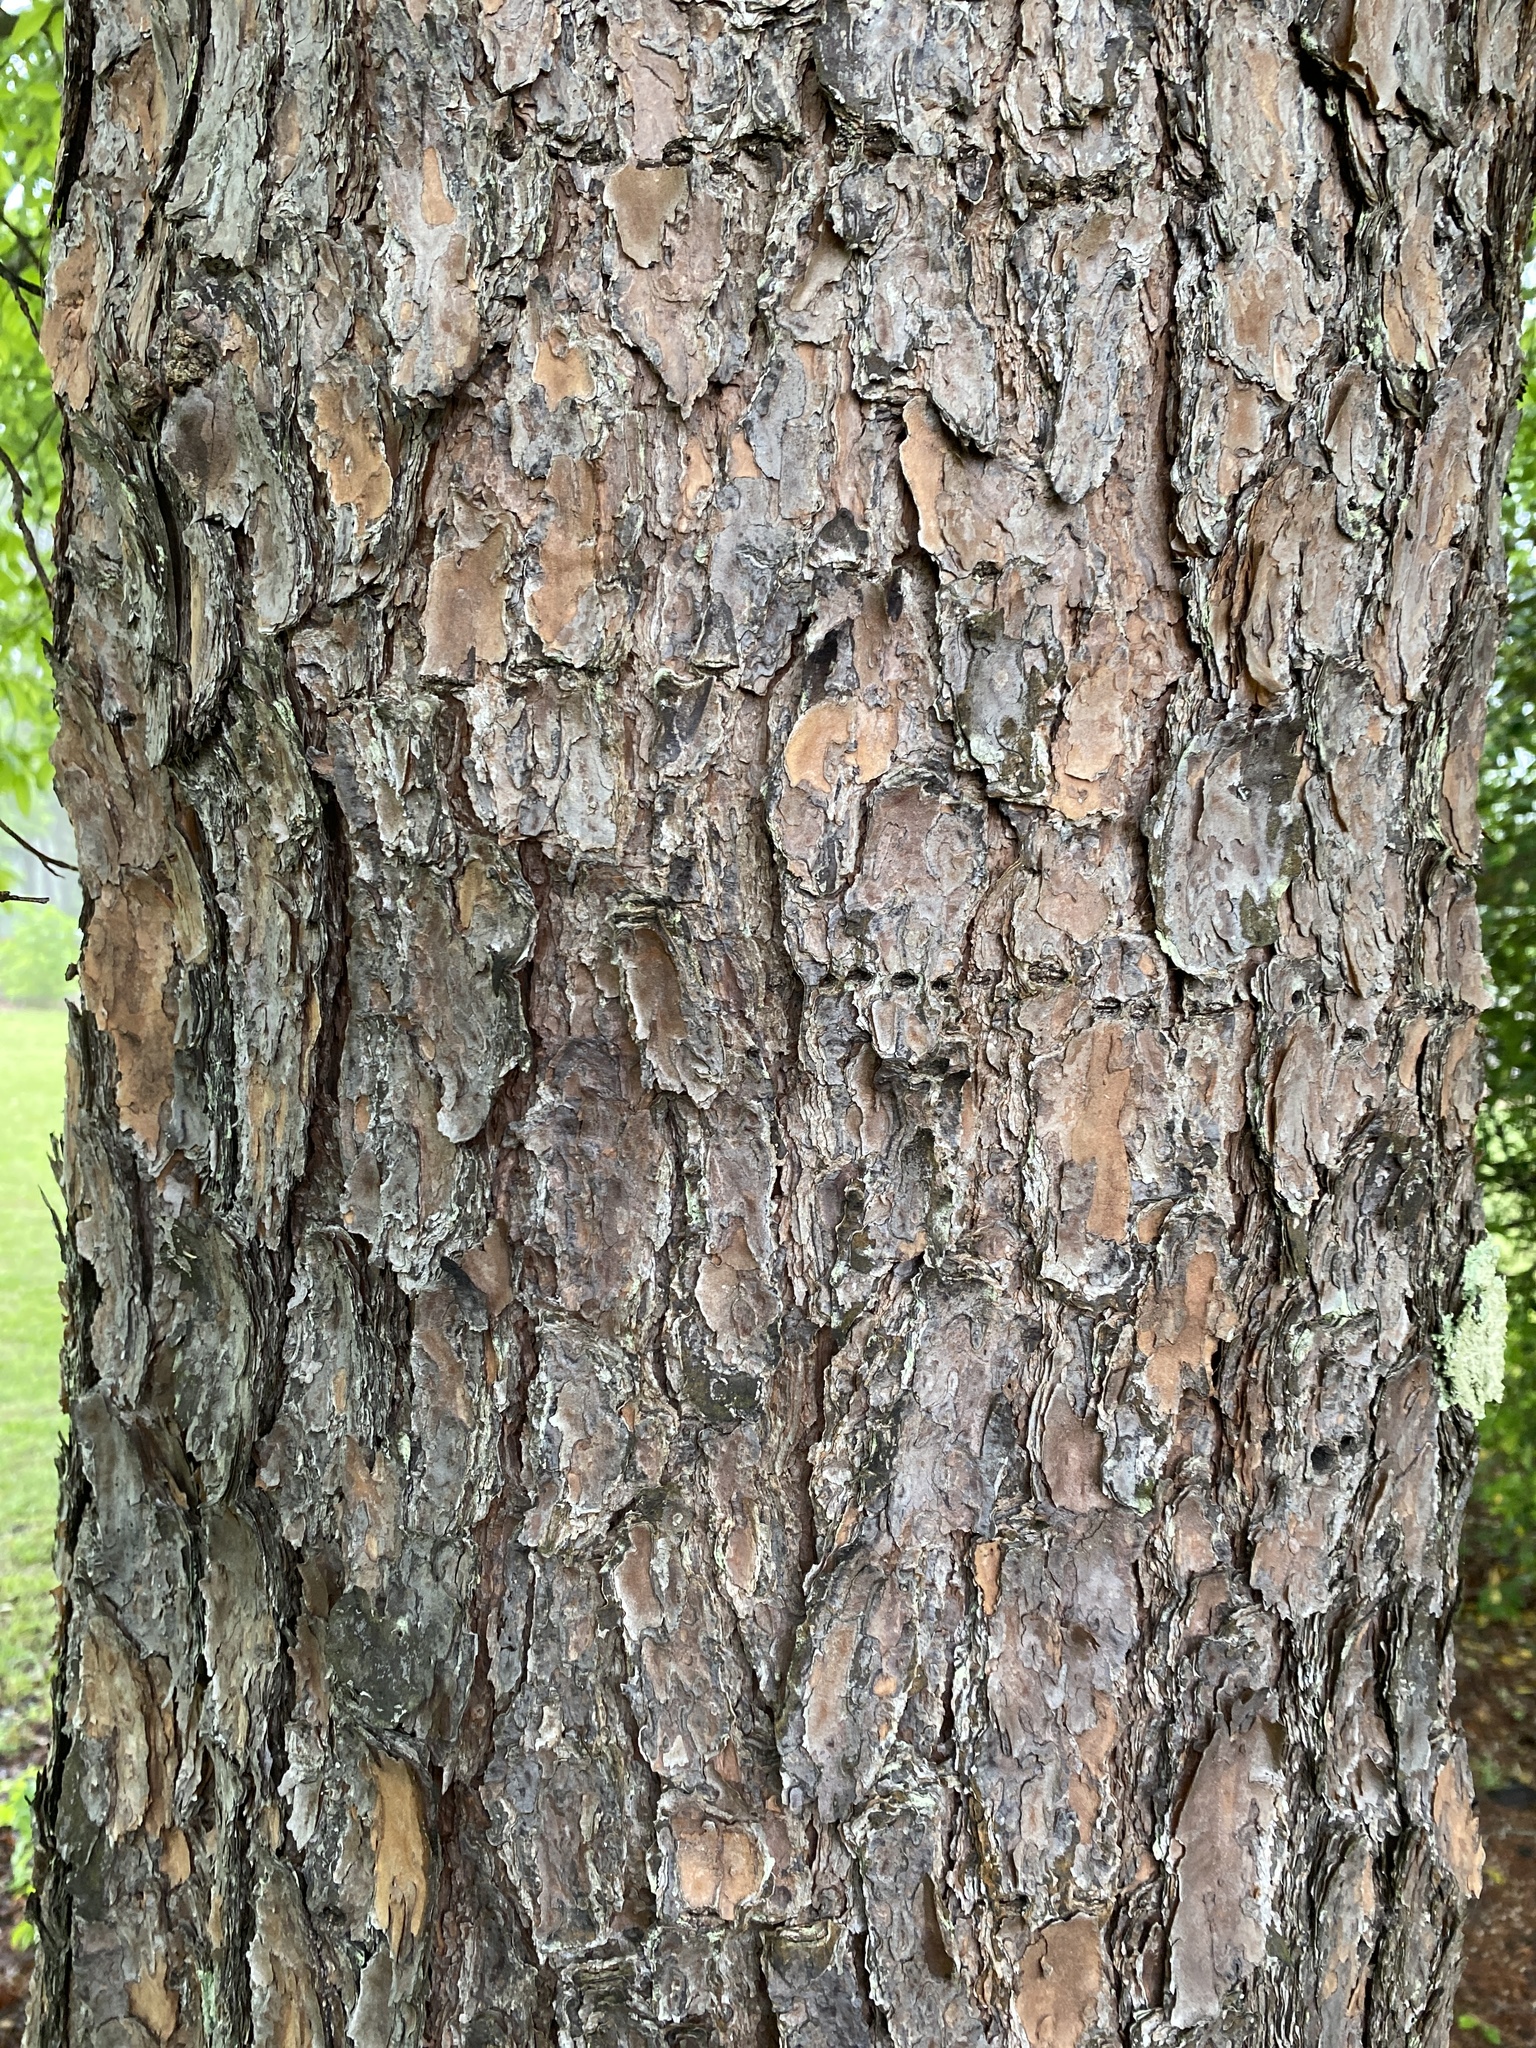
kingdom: Plantae
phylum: Tracheophyta
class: Pinopsida
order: Pinales
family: Pinaceae
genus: Pinus
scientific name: Pinus virginiana
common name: Scrub pine
